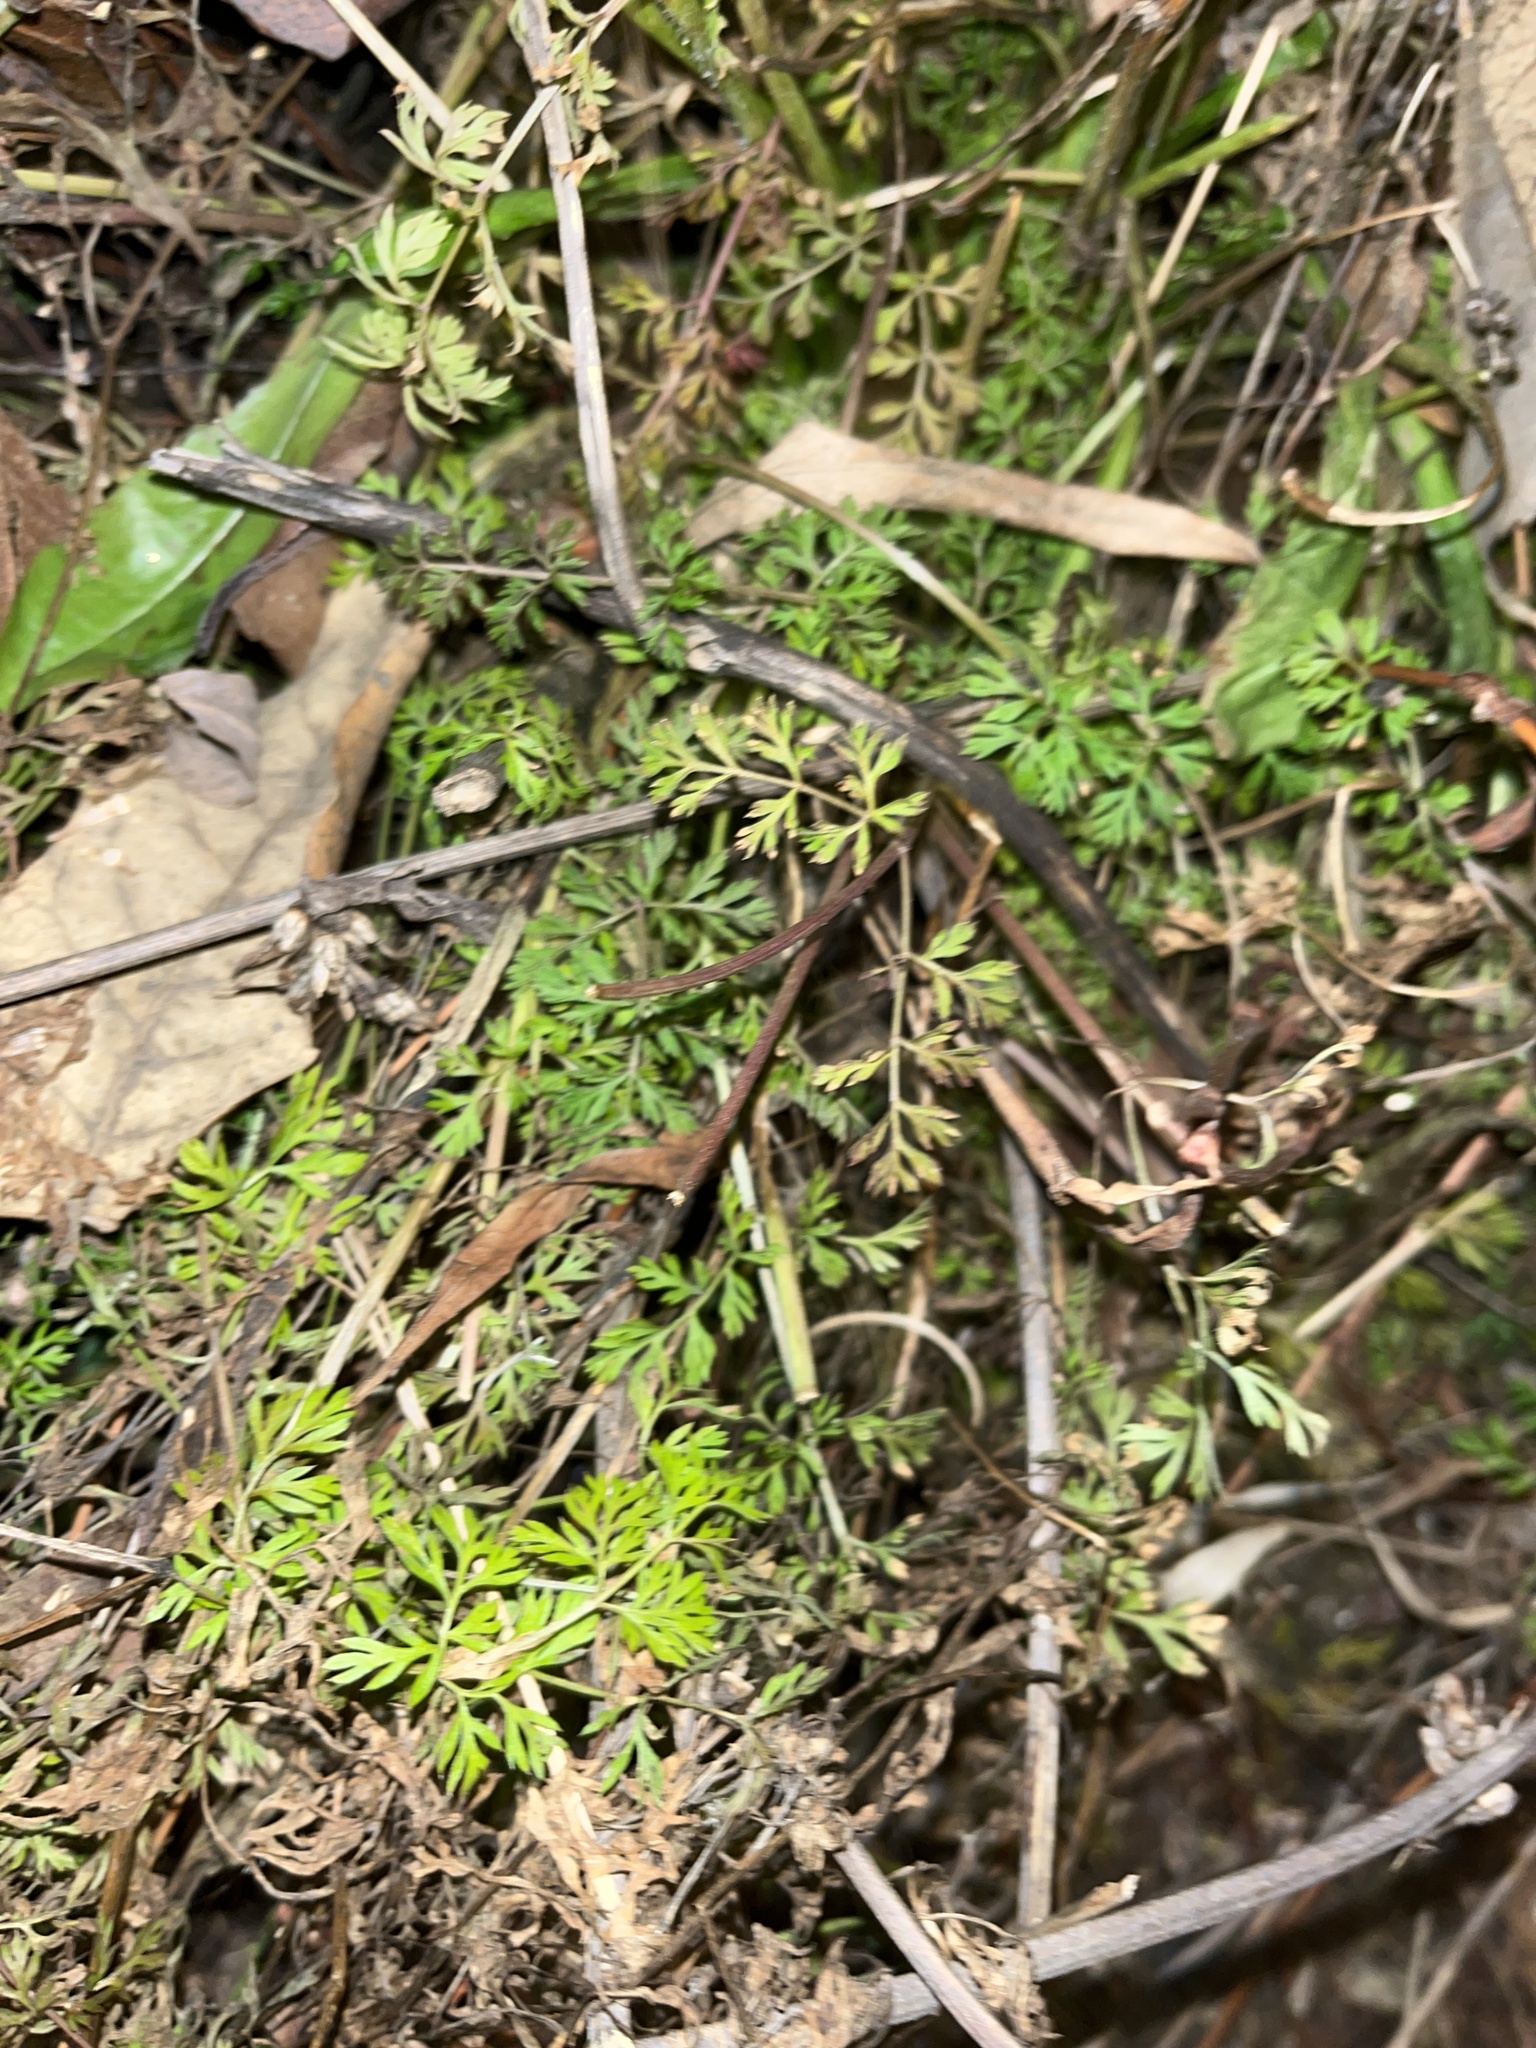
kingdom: Plantae
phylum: Tracheophyta
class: Magnoliopsida
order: Apiales
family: Apiaceae
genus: Daucus
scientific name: Daucus carota
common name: Wild carrot
